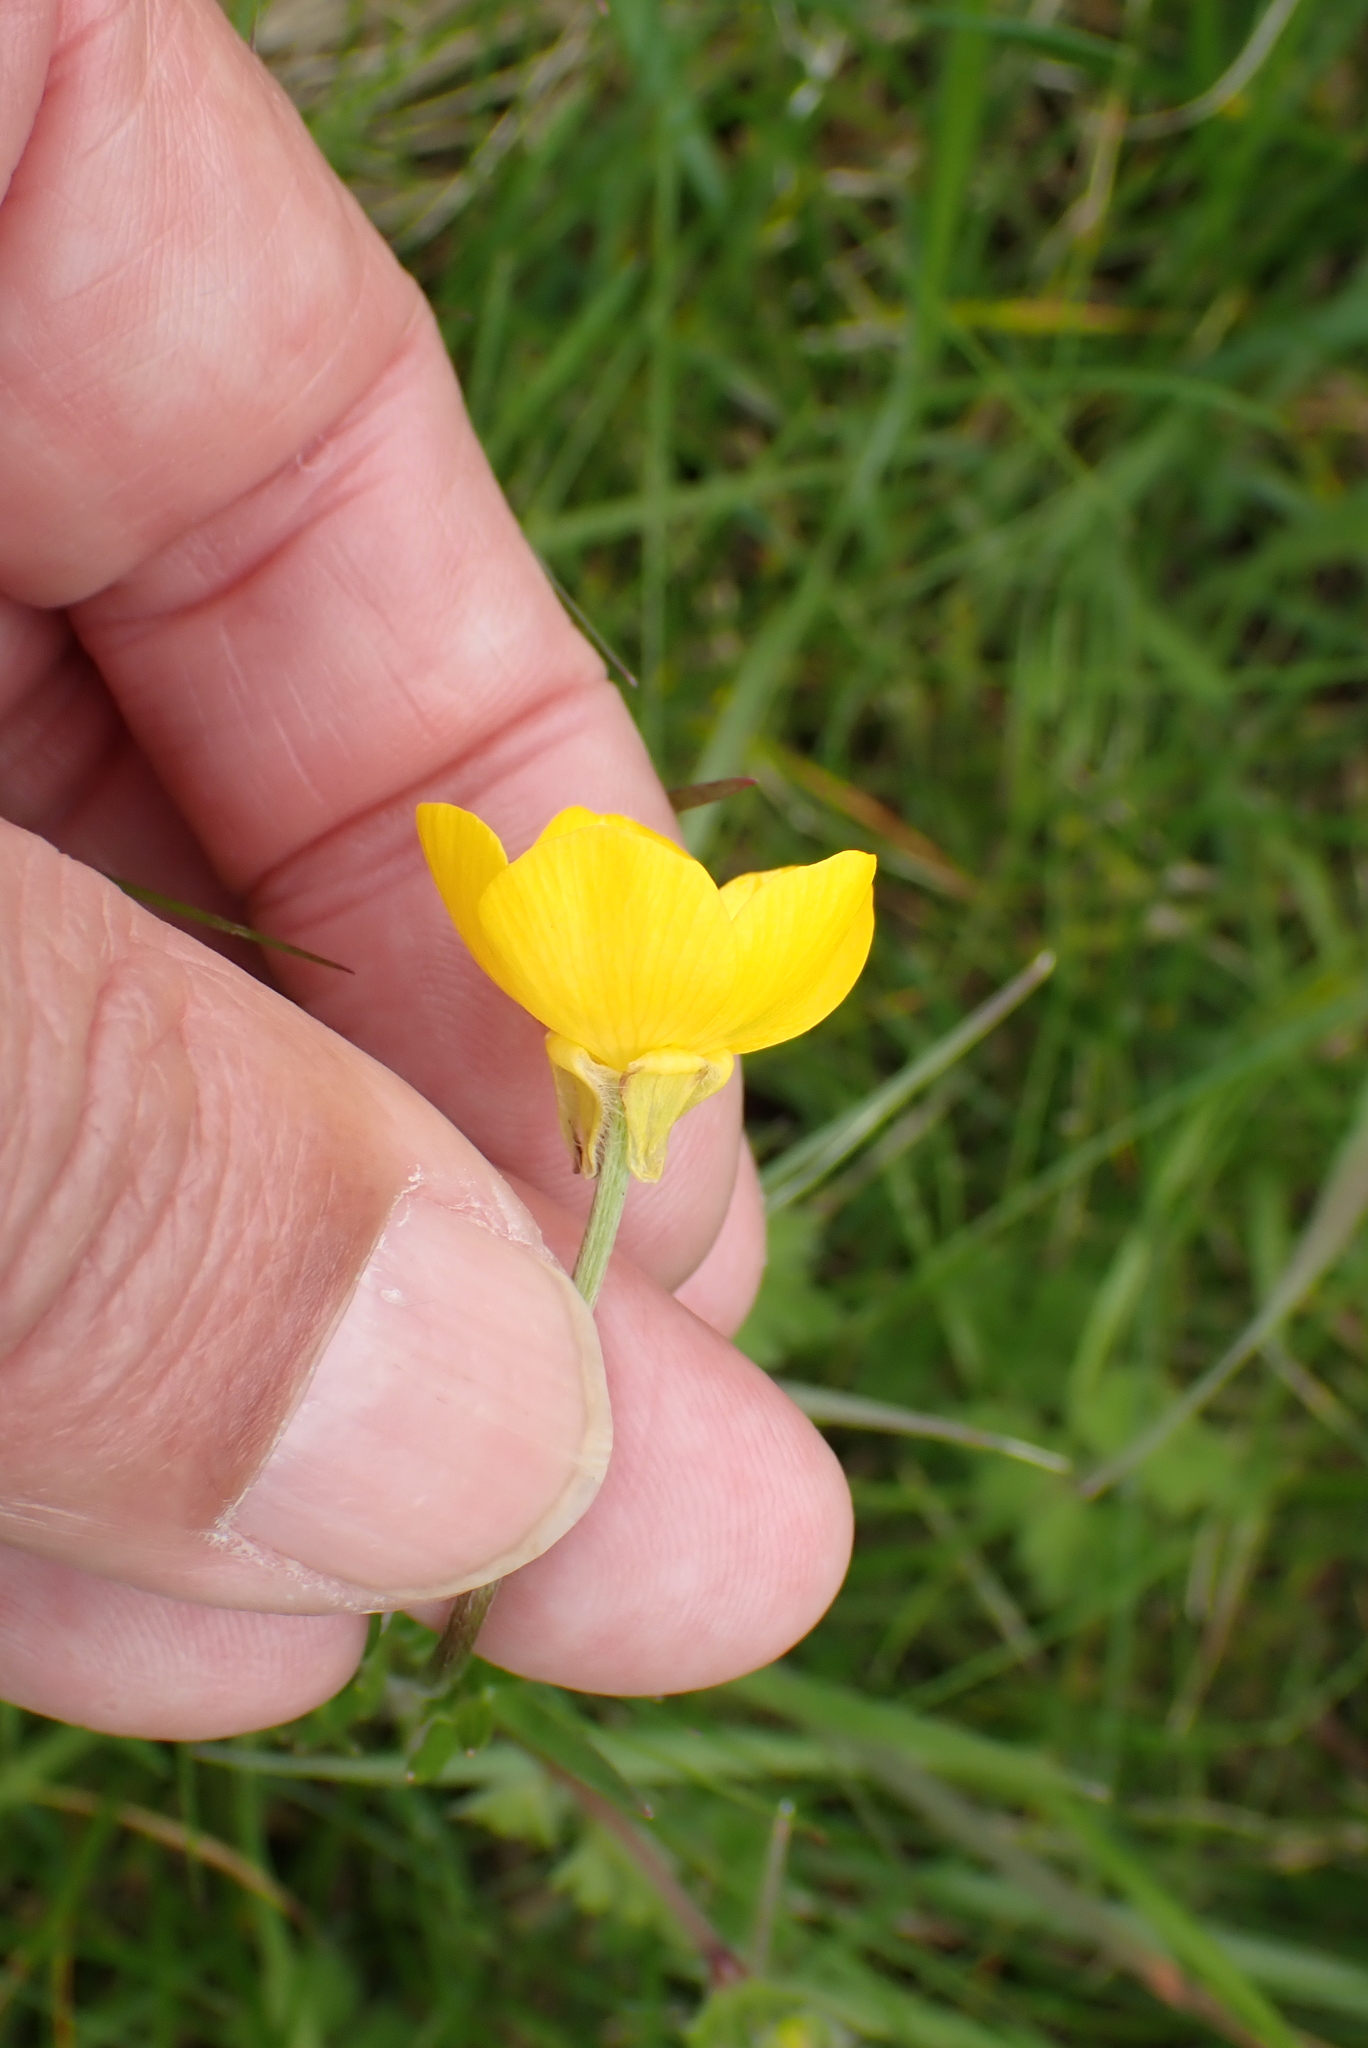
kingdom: Plantae
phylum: Tracheophyta
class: Magnoliopsida
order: Ranunculales
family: Ranunculaceae
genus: Ranunculus
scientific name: Ranunculus bulbosus
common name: Bulbous buttercup
